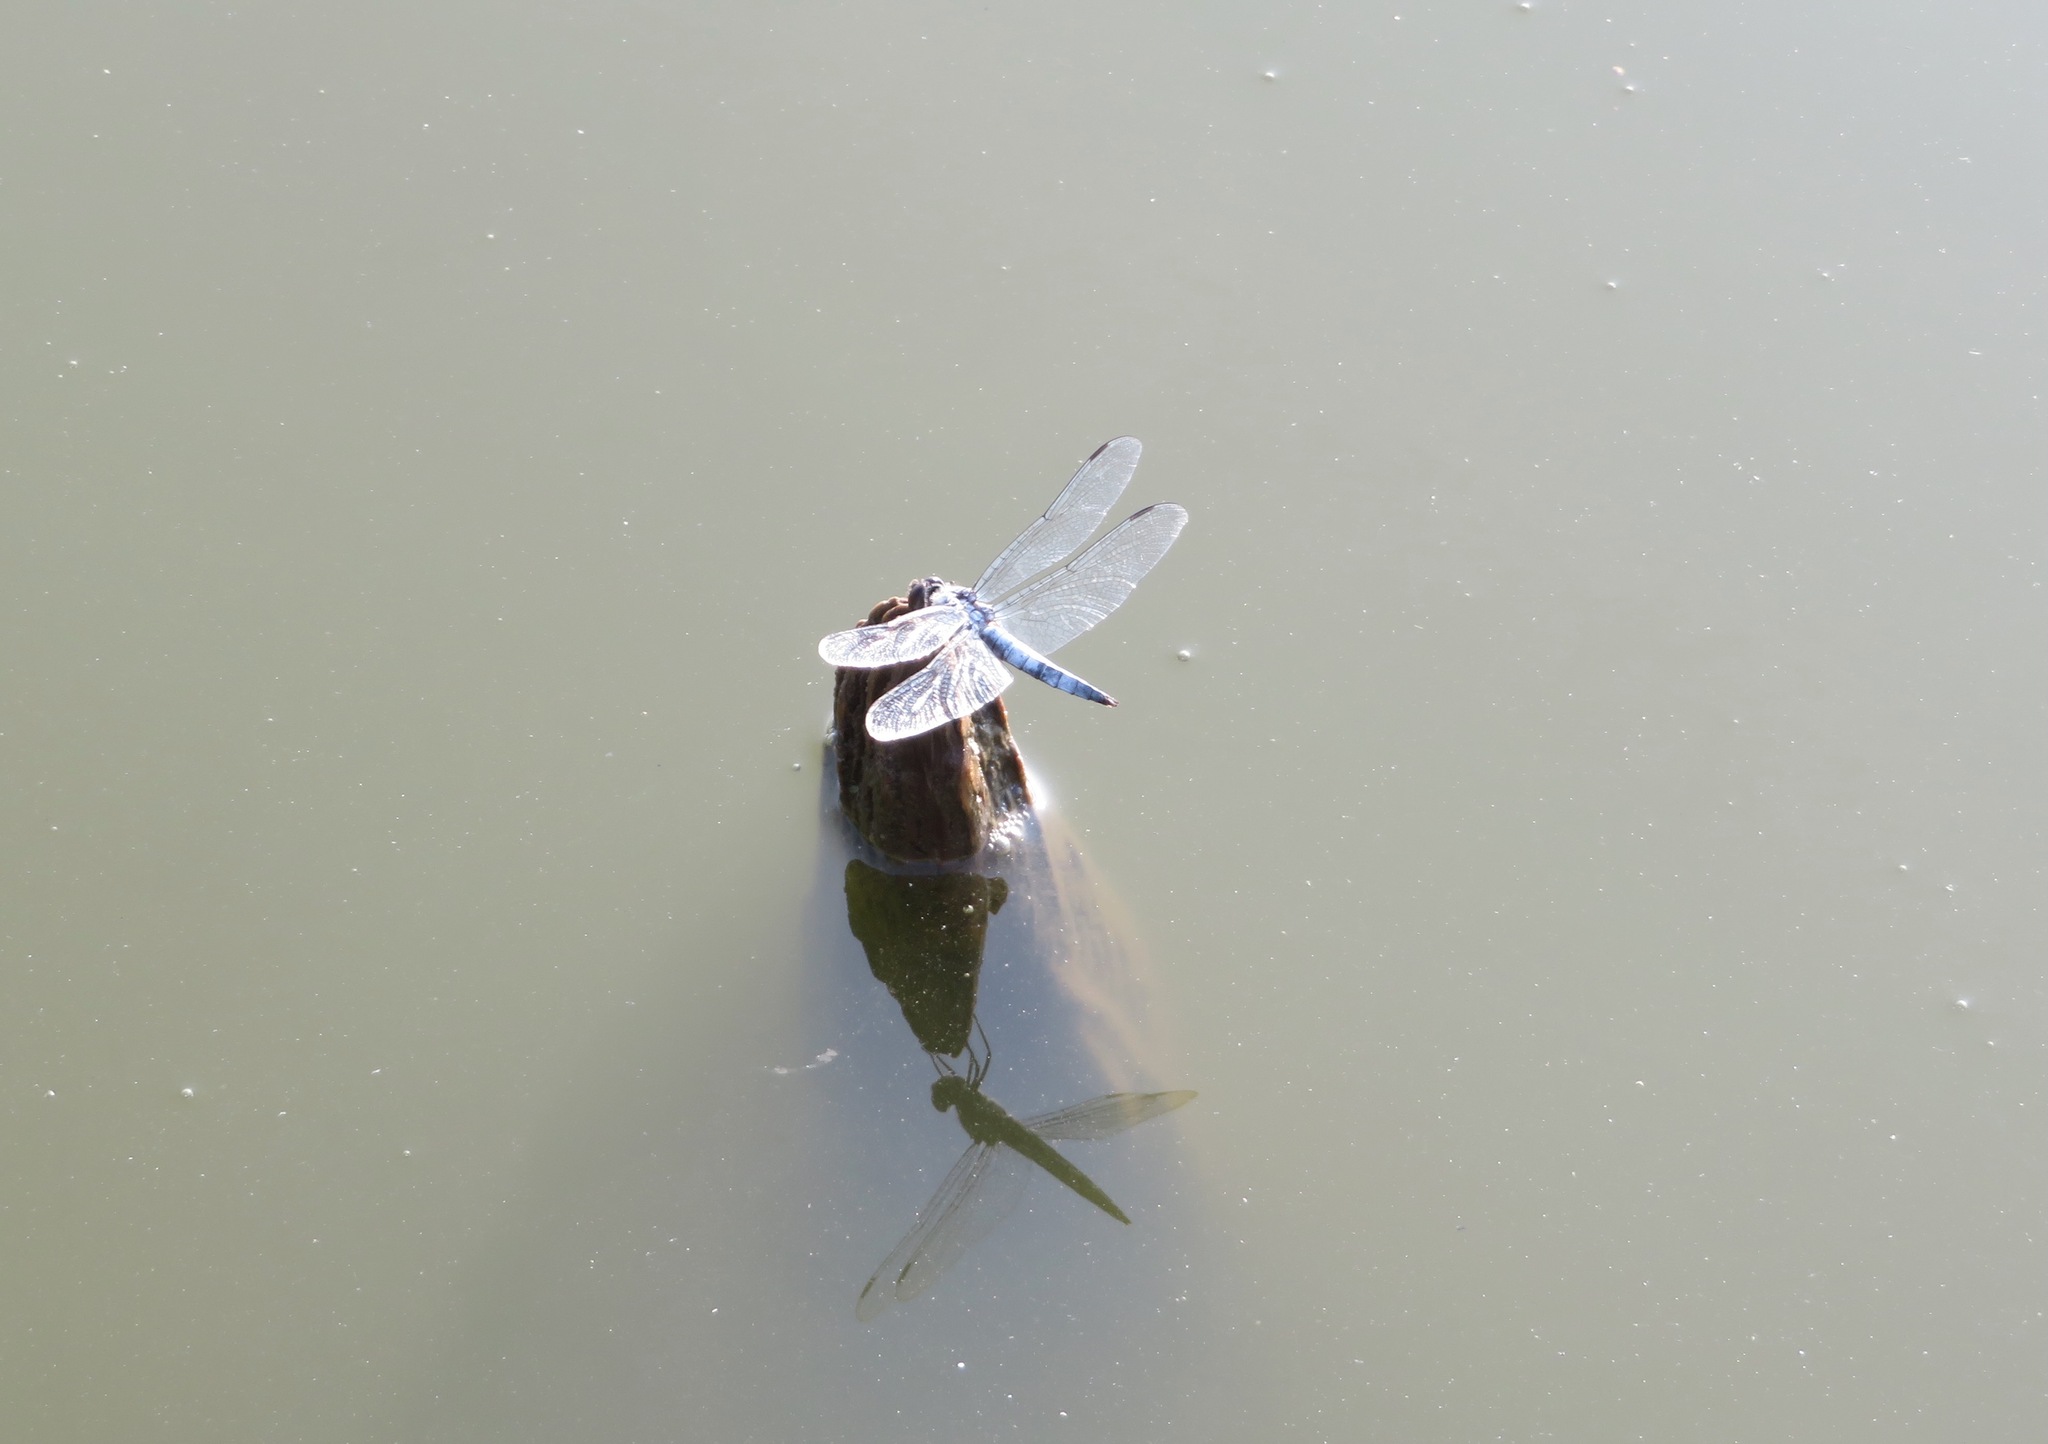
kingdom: Animalia
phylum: Arthropoda
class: Insecta
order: Odonata
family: Libellulidae
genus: Deielia
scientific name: Deielia phaon
